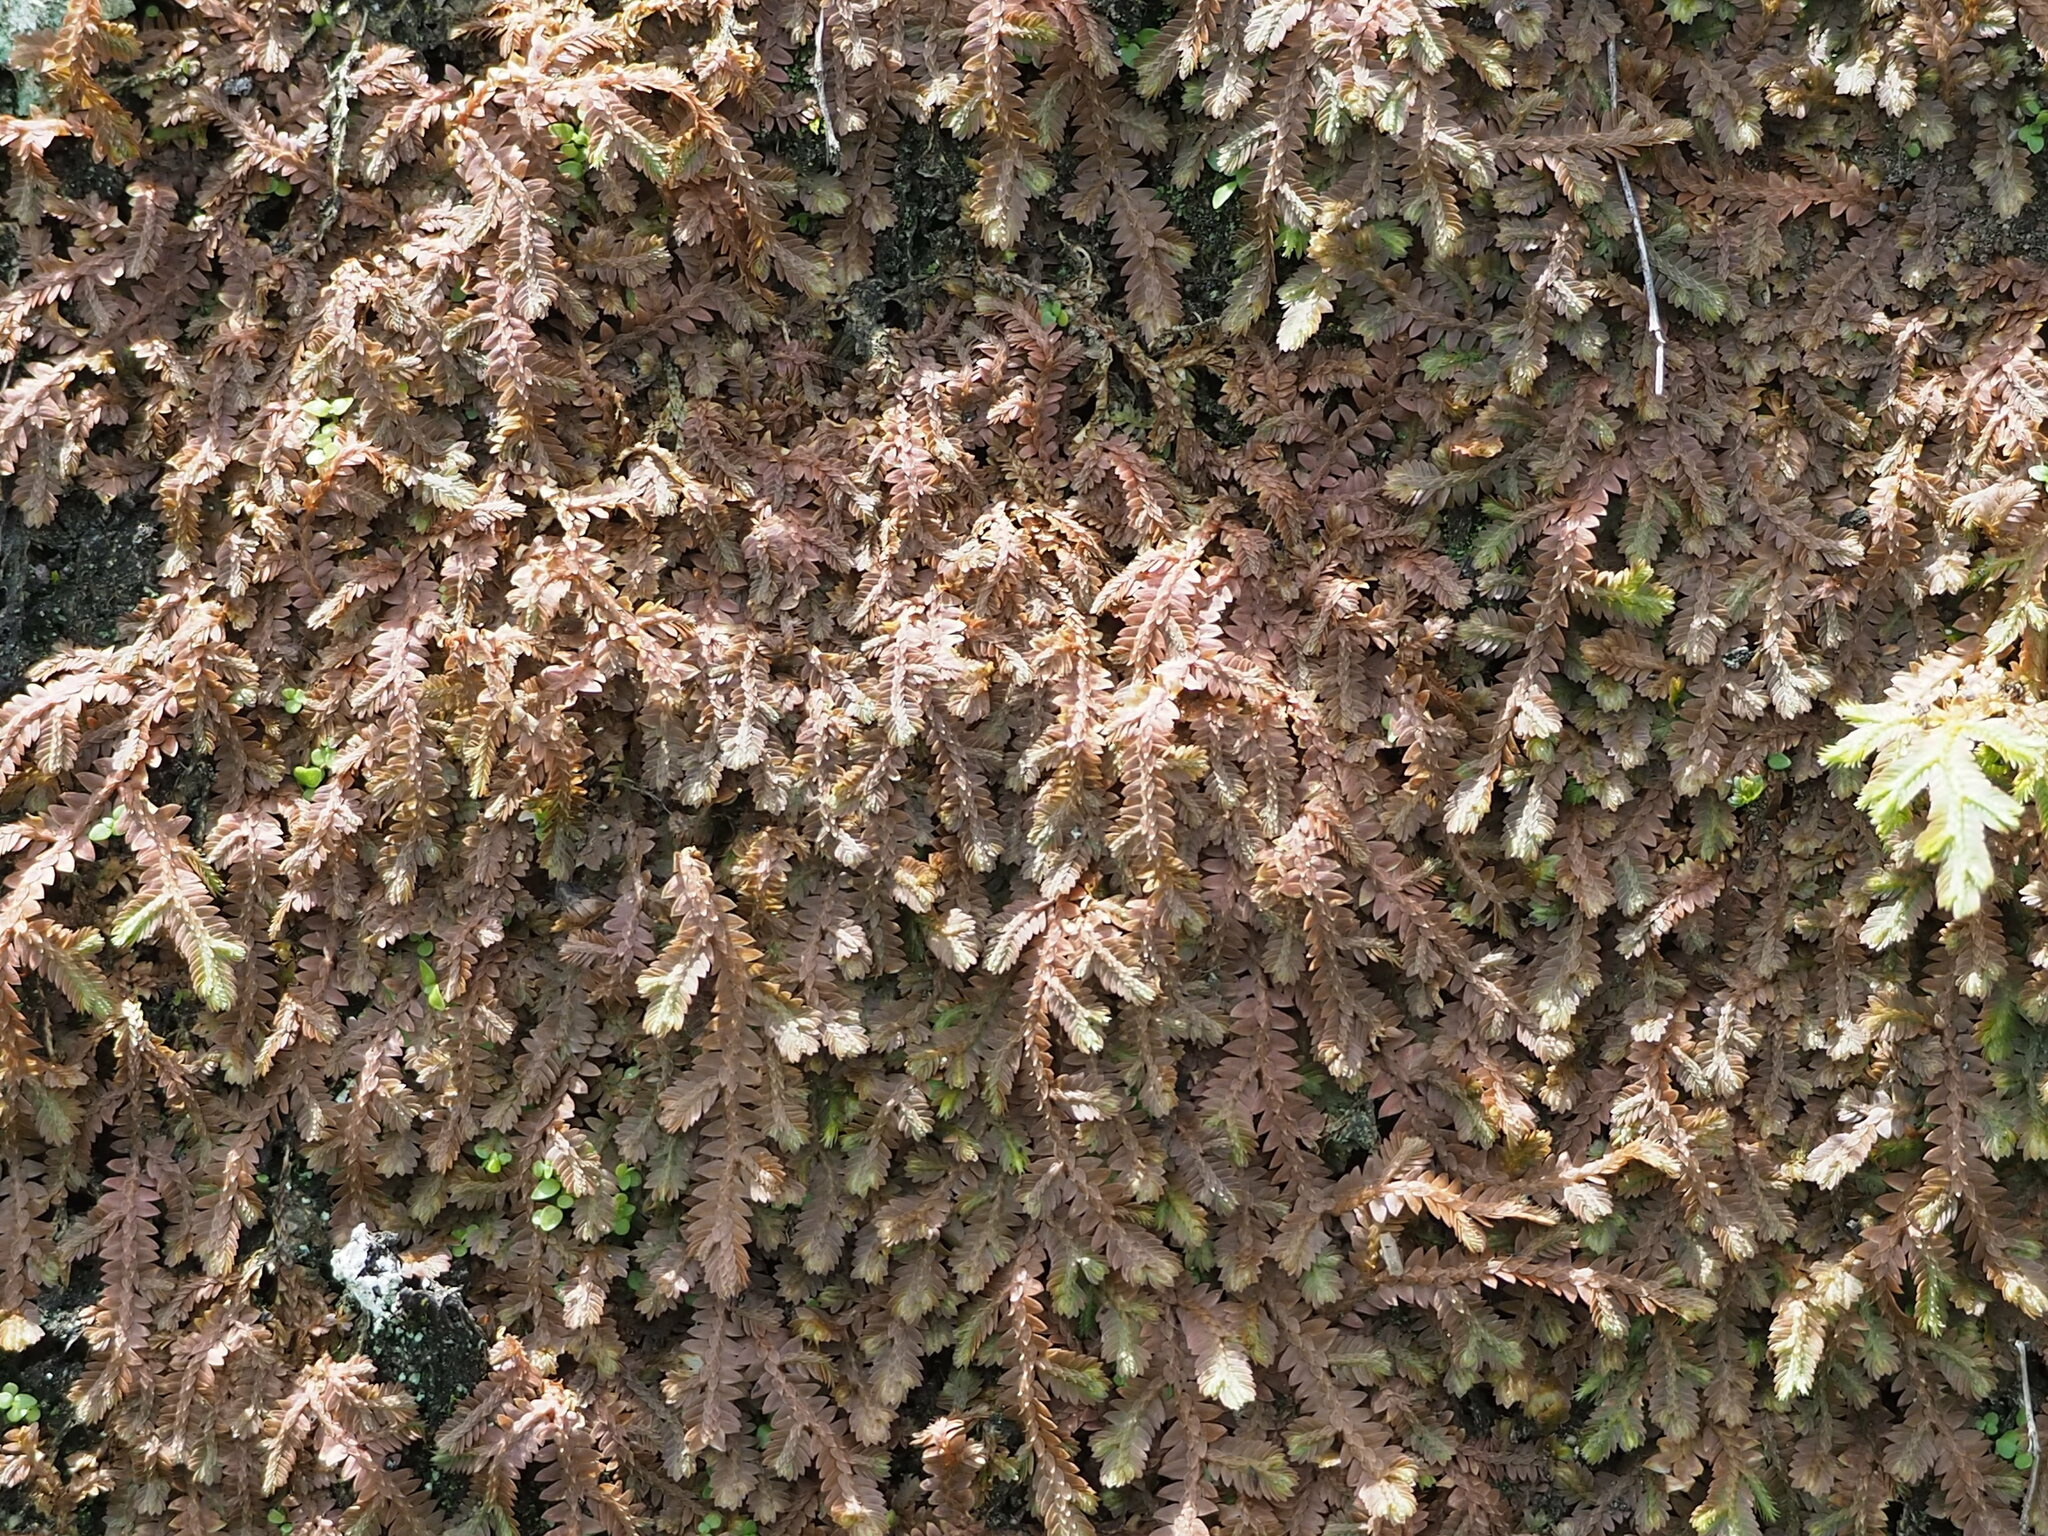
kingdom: Plantae
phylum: Tracheophyta
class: Lycopodiopsida
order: Selaginellales
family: Selaginellaceae
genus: Selaginella
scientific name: Selaginella repanda
